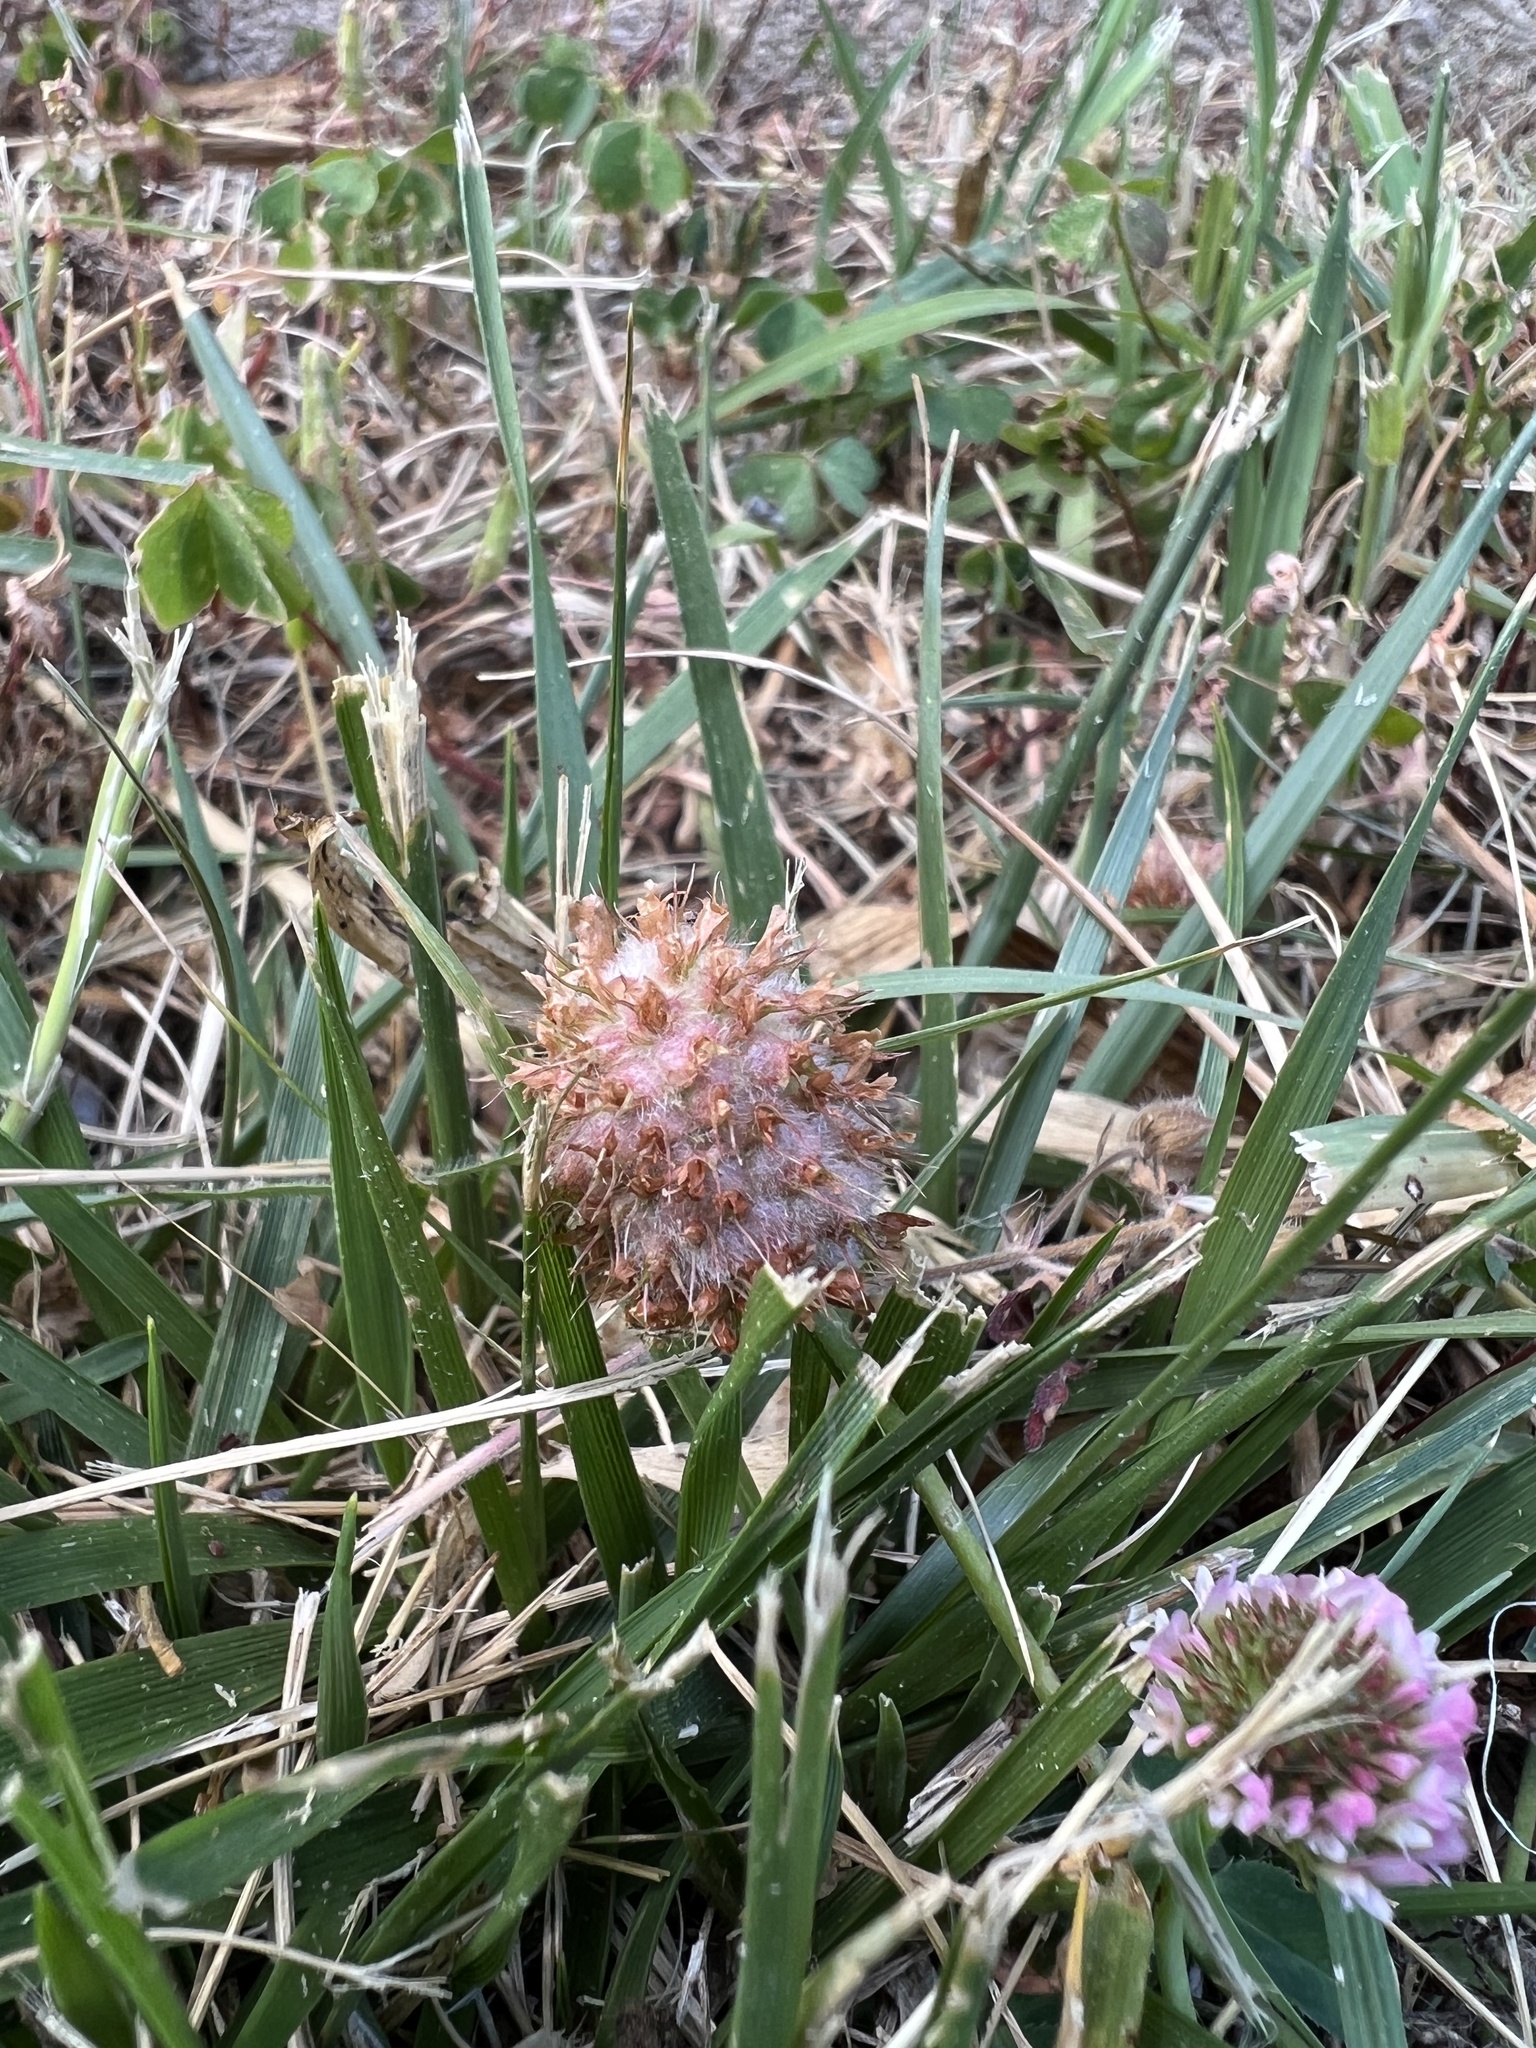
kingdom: Plantae
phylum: Tracheophyta
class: Magnoliopsida
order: Fabales
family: Fabaceae
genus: Trifolium
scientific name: Trifolium fragiferum
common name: Strawberry clover
